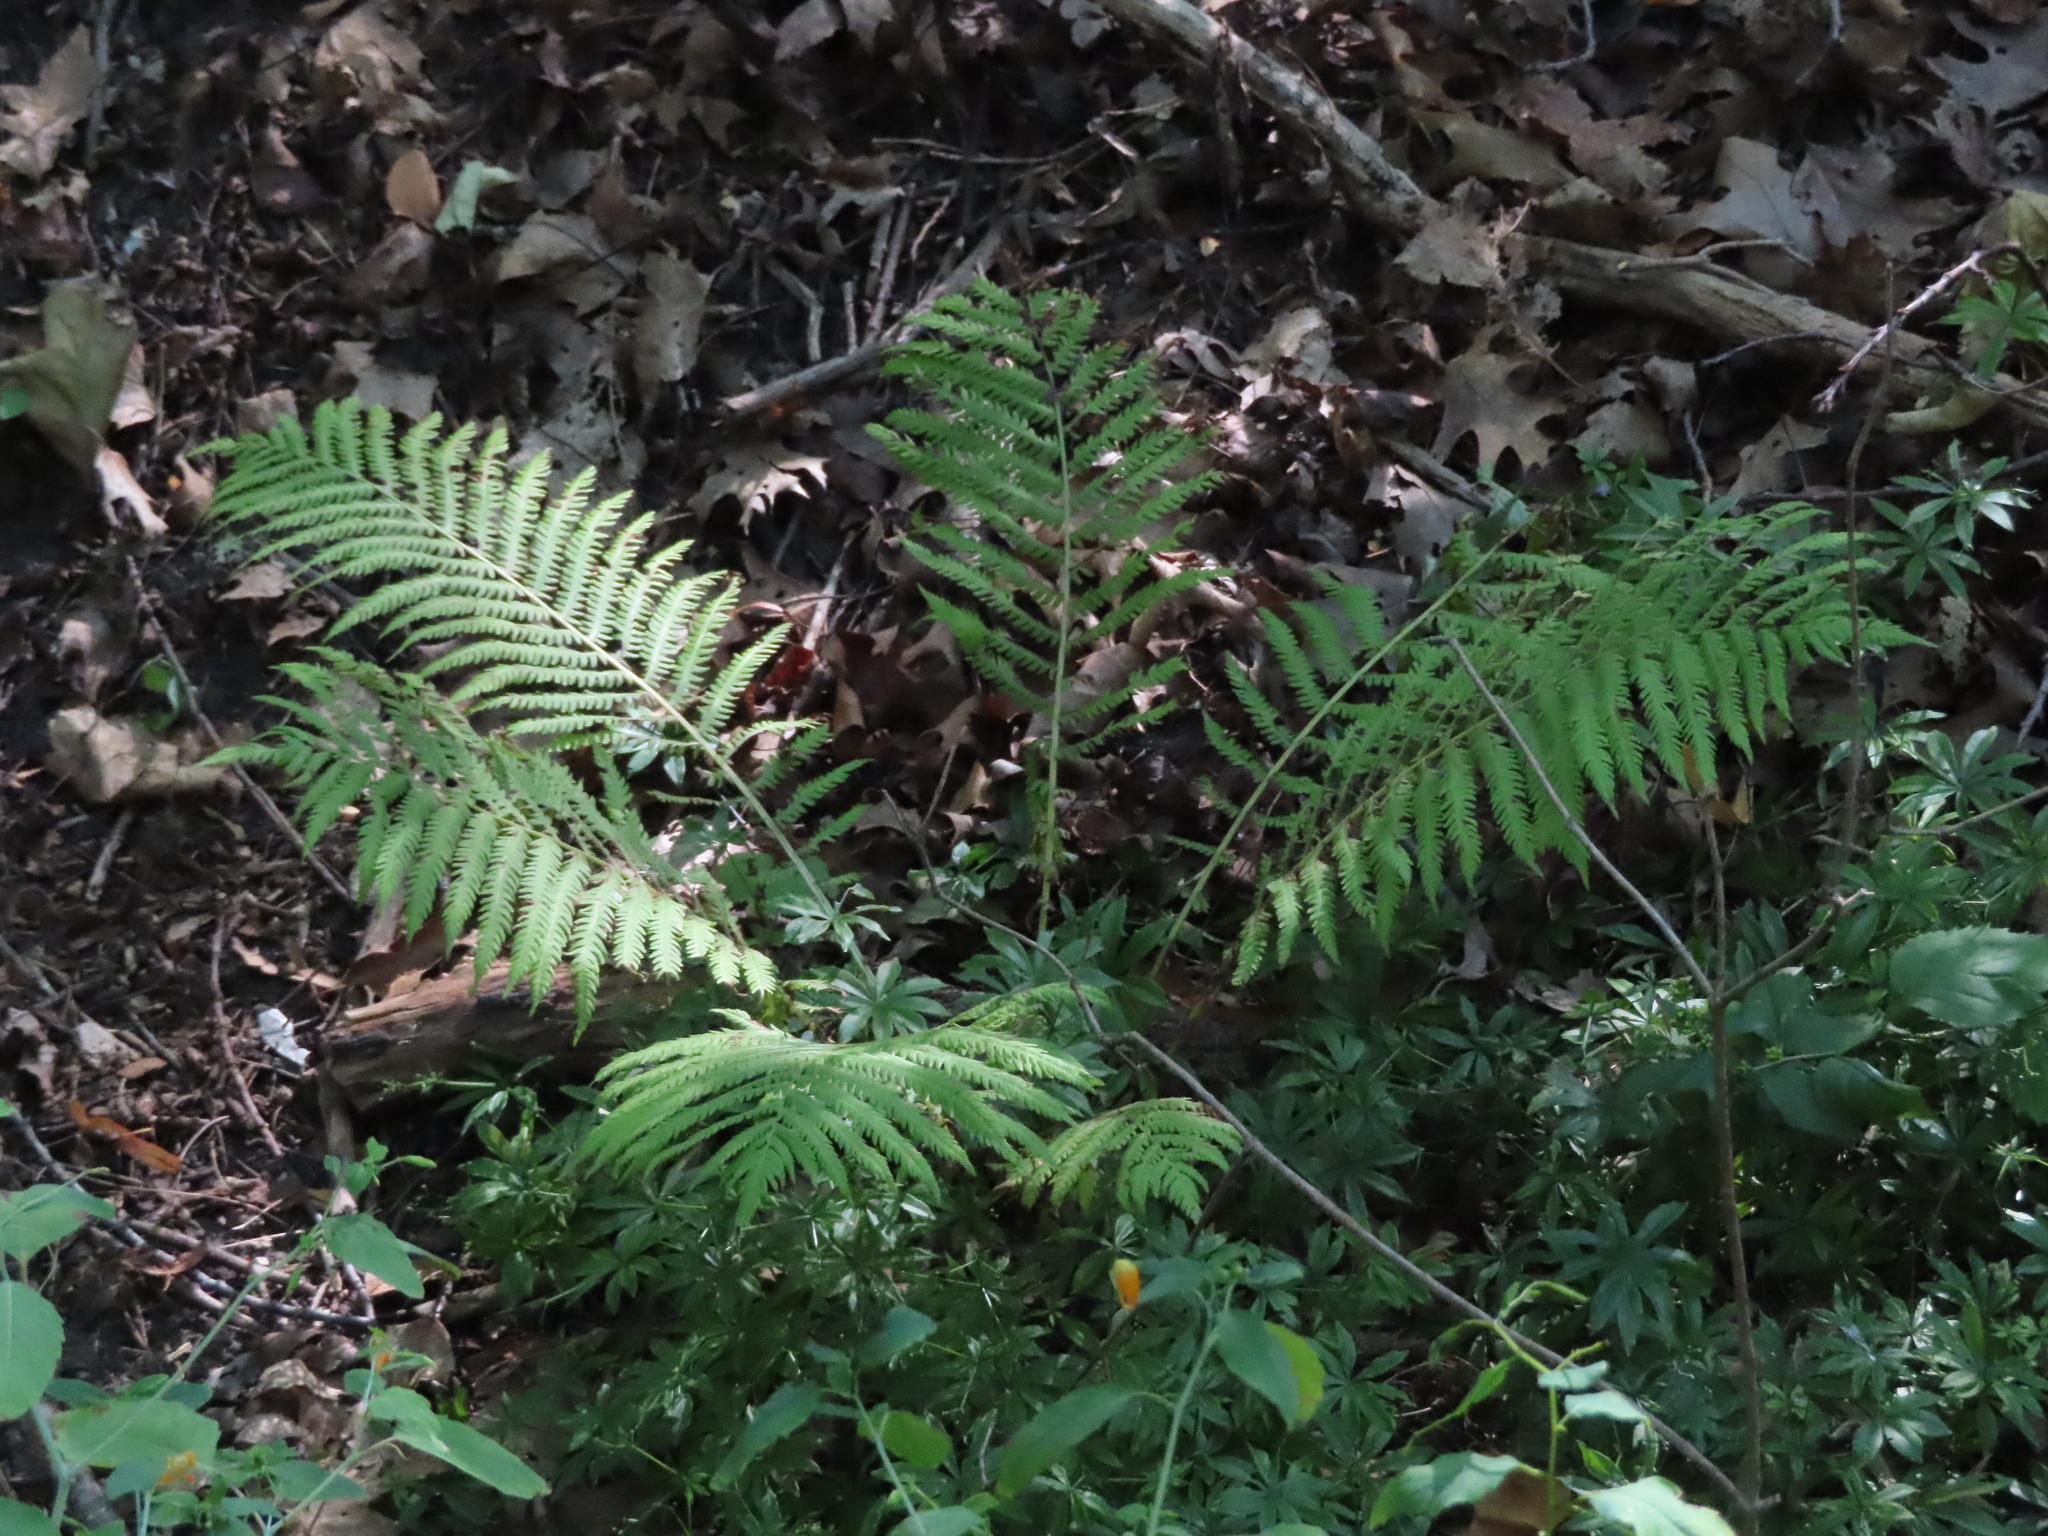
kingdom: Plantae
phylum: Tracheophyta
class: Polypodiopsida
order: Polypodiales
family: Onocleaceae
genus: Matteuccia
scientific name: Matteuccia struthiopteris
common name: Ostrich fern
